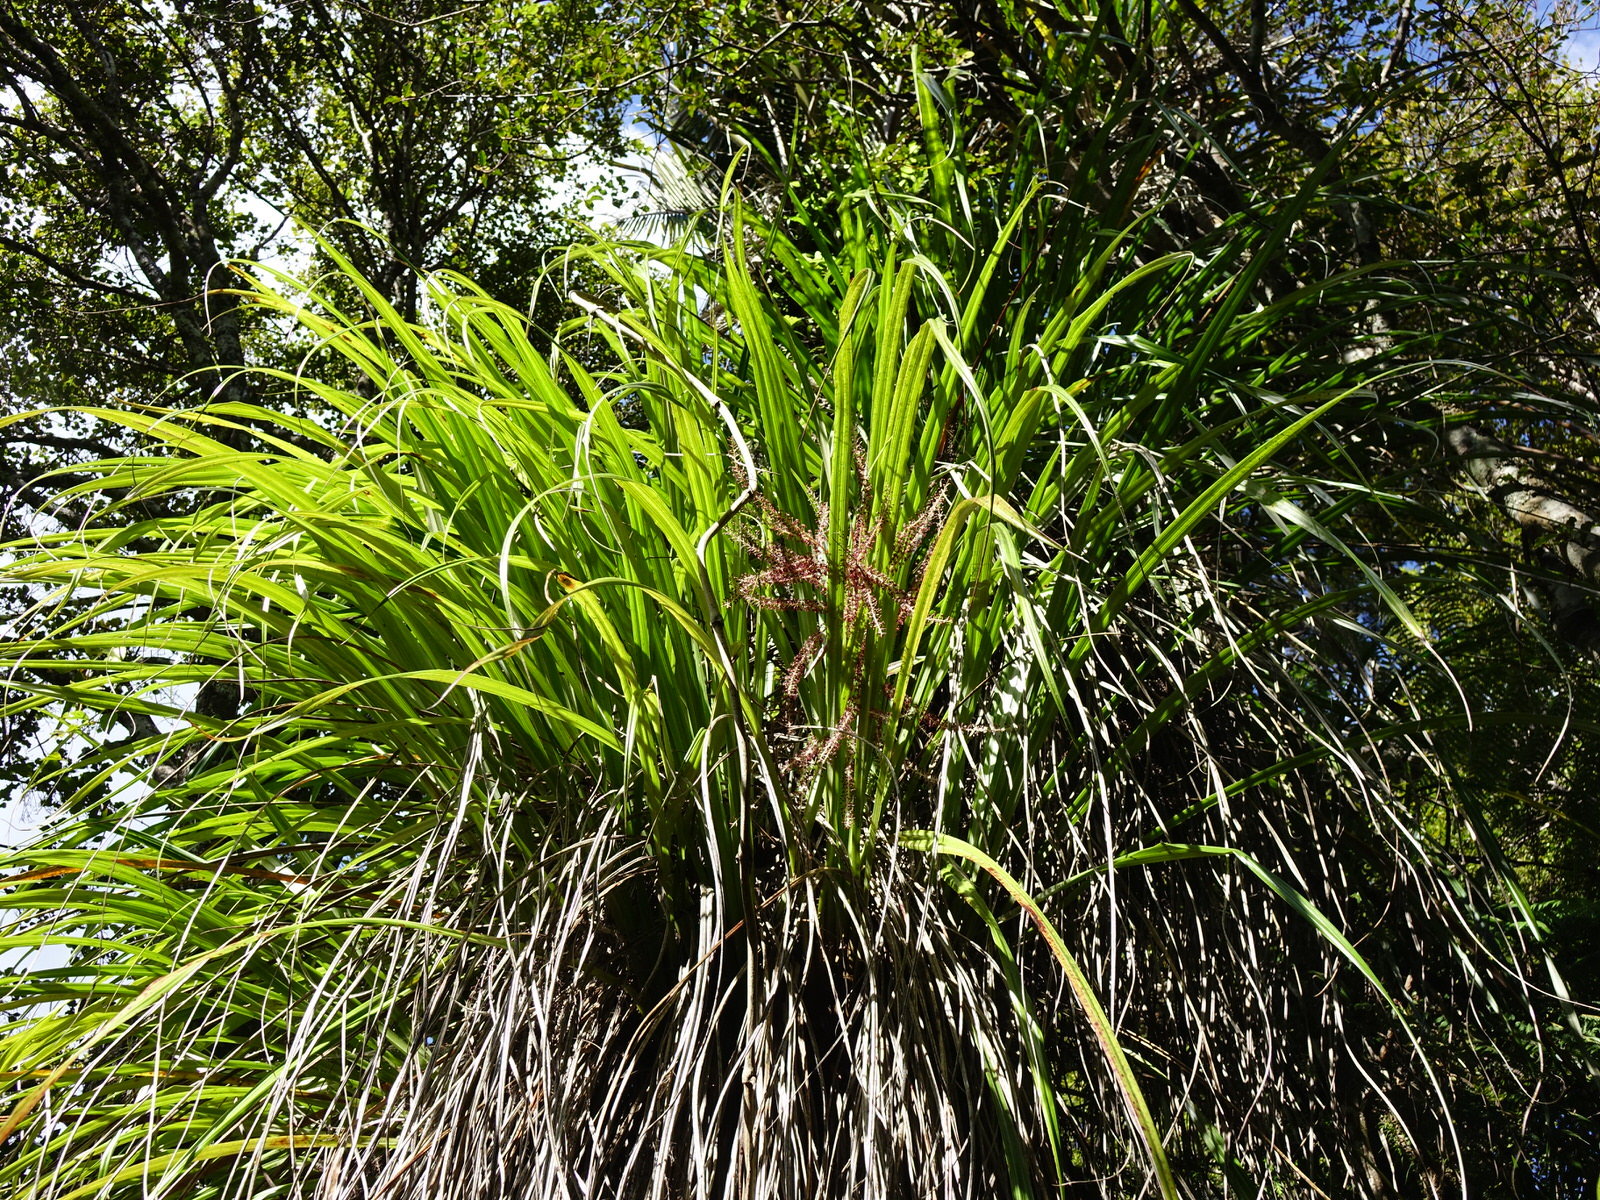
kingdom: Plantae
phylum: Tracheophyta
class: Liliopsida
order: Asparagales
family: Asteliaceae
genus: Astelia
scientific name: Astelia trinervia
